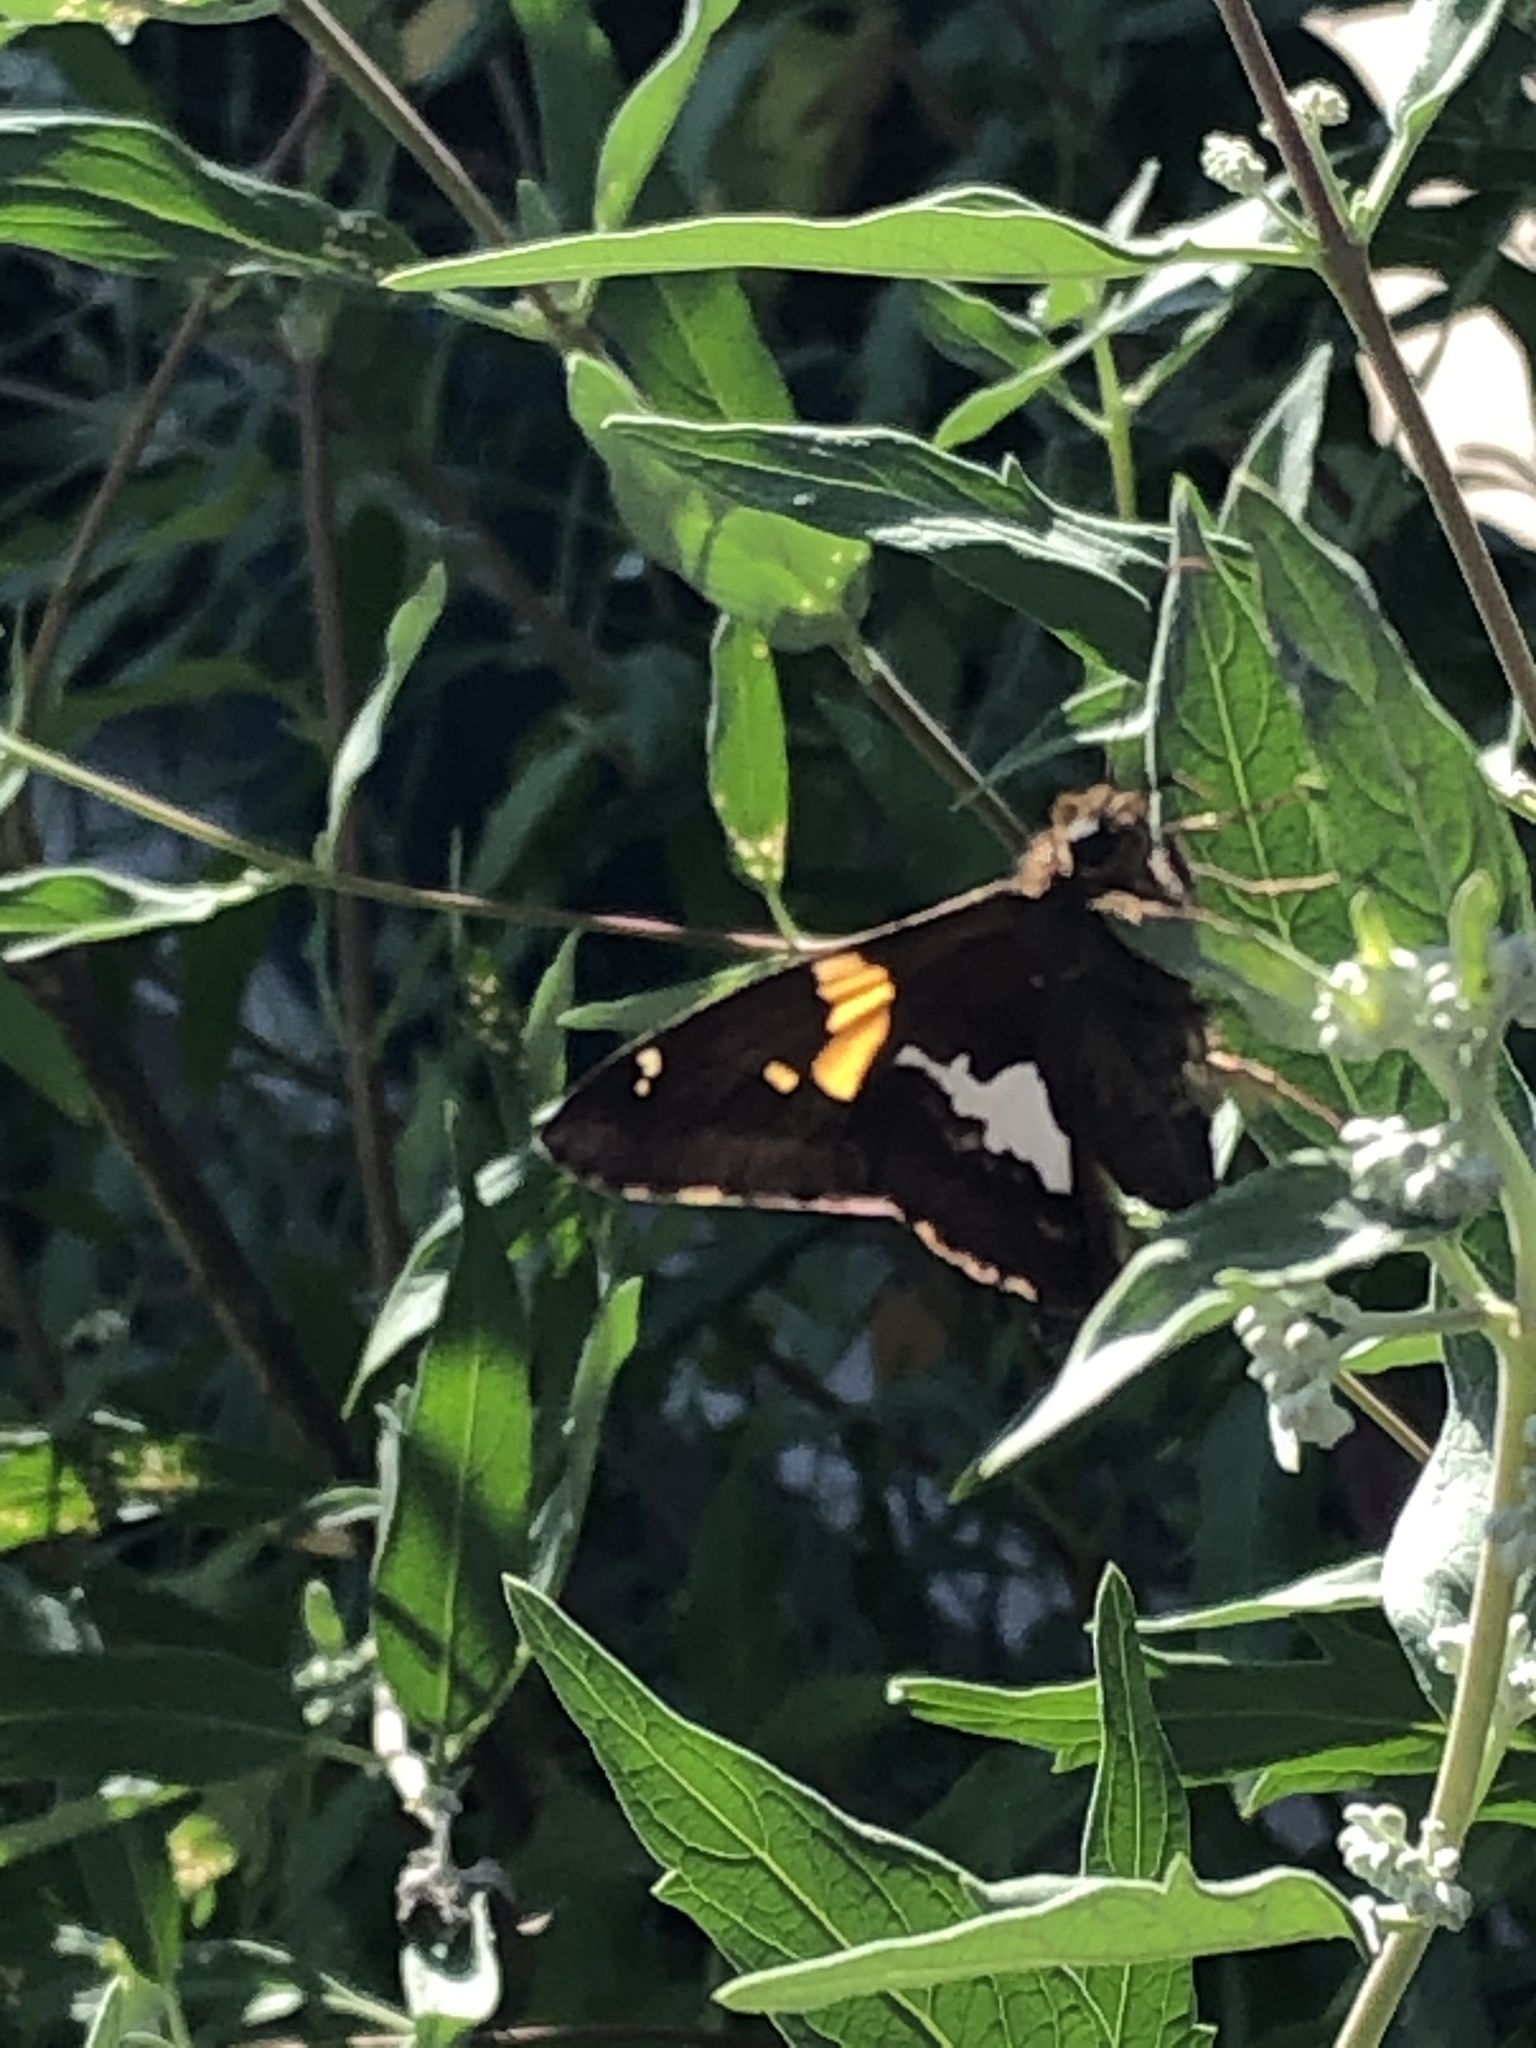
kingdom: Animalia
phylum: Arthropoda
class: Insecta
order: Lepidoptera
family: Hesperiidae
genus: Epargyreus
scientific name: Epargyreus clarus
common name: Silver-spotted skipper
